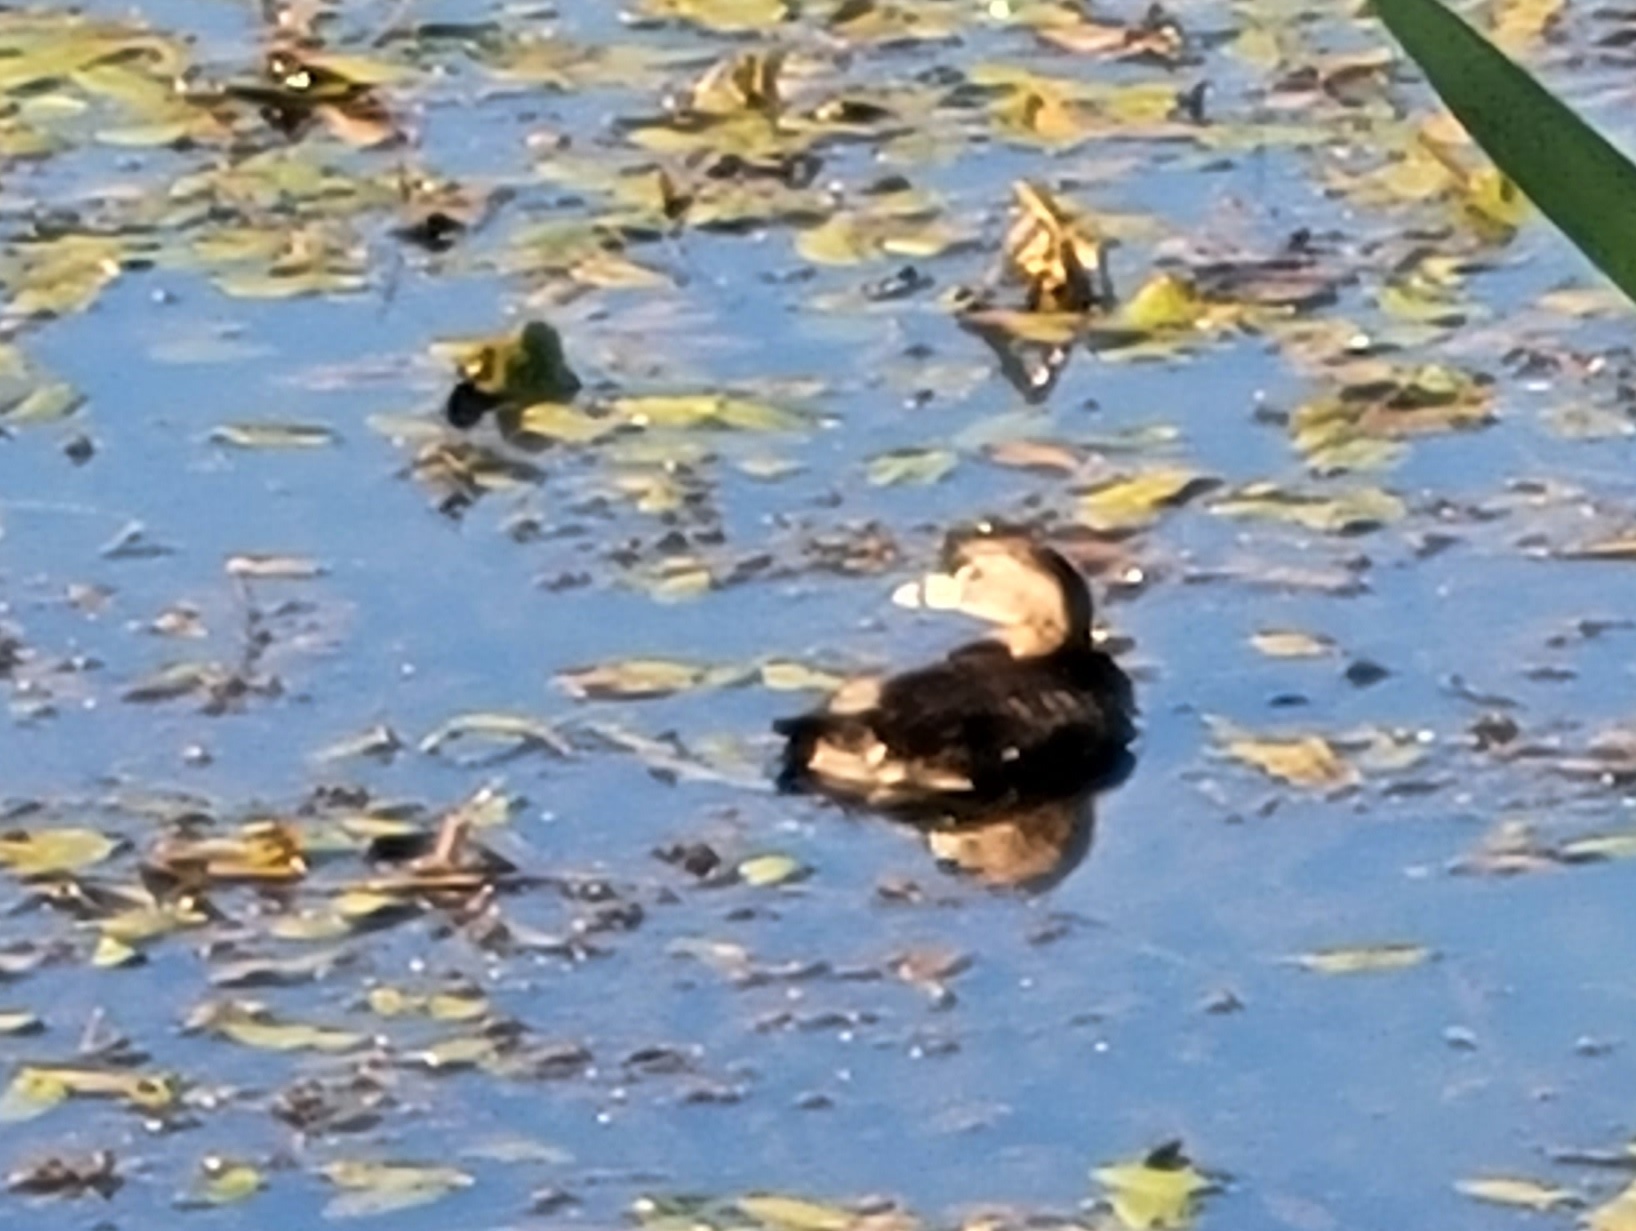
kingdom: Animalia
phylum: Chordata
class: Aves
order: Podicipediformes
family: Podicipedidae
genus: Podilymbus
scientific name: Podilymbus podiceps
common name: Pied-billed grebe
